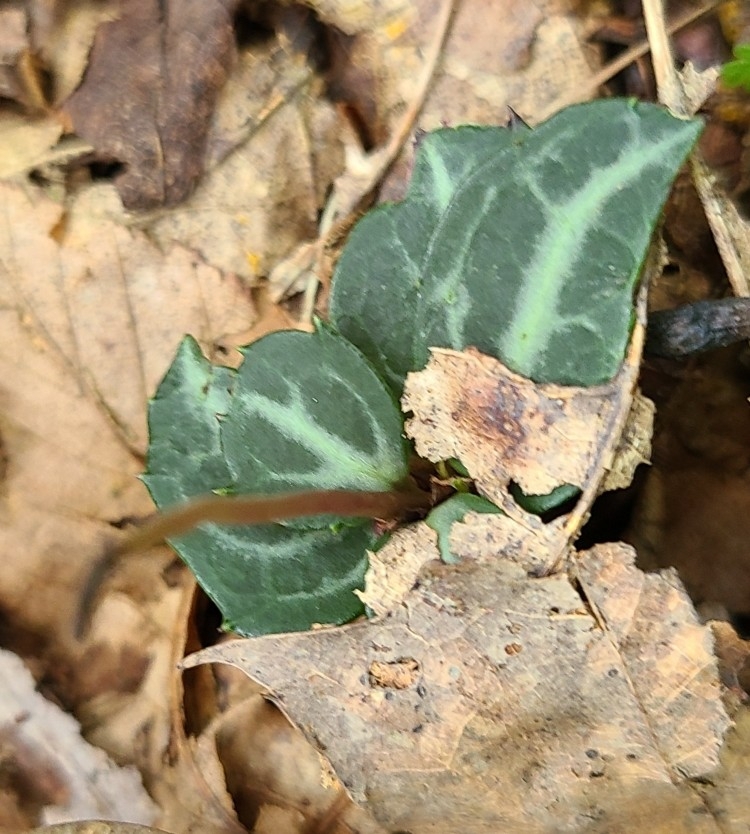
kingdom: Plantae
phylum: Tracheophyta
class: Magnoliopsida
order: Ericales
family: Ericaceae
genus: Chimaphila
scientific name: Chimaphila maculata
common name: Spotted pipsissewa
